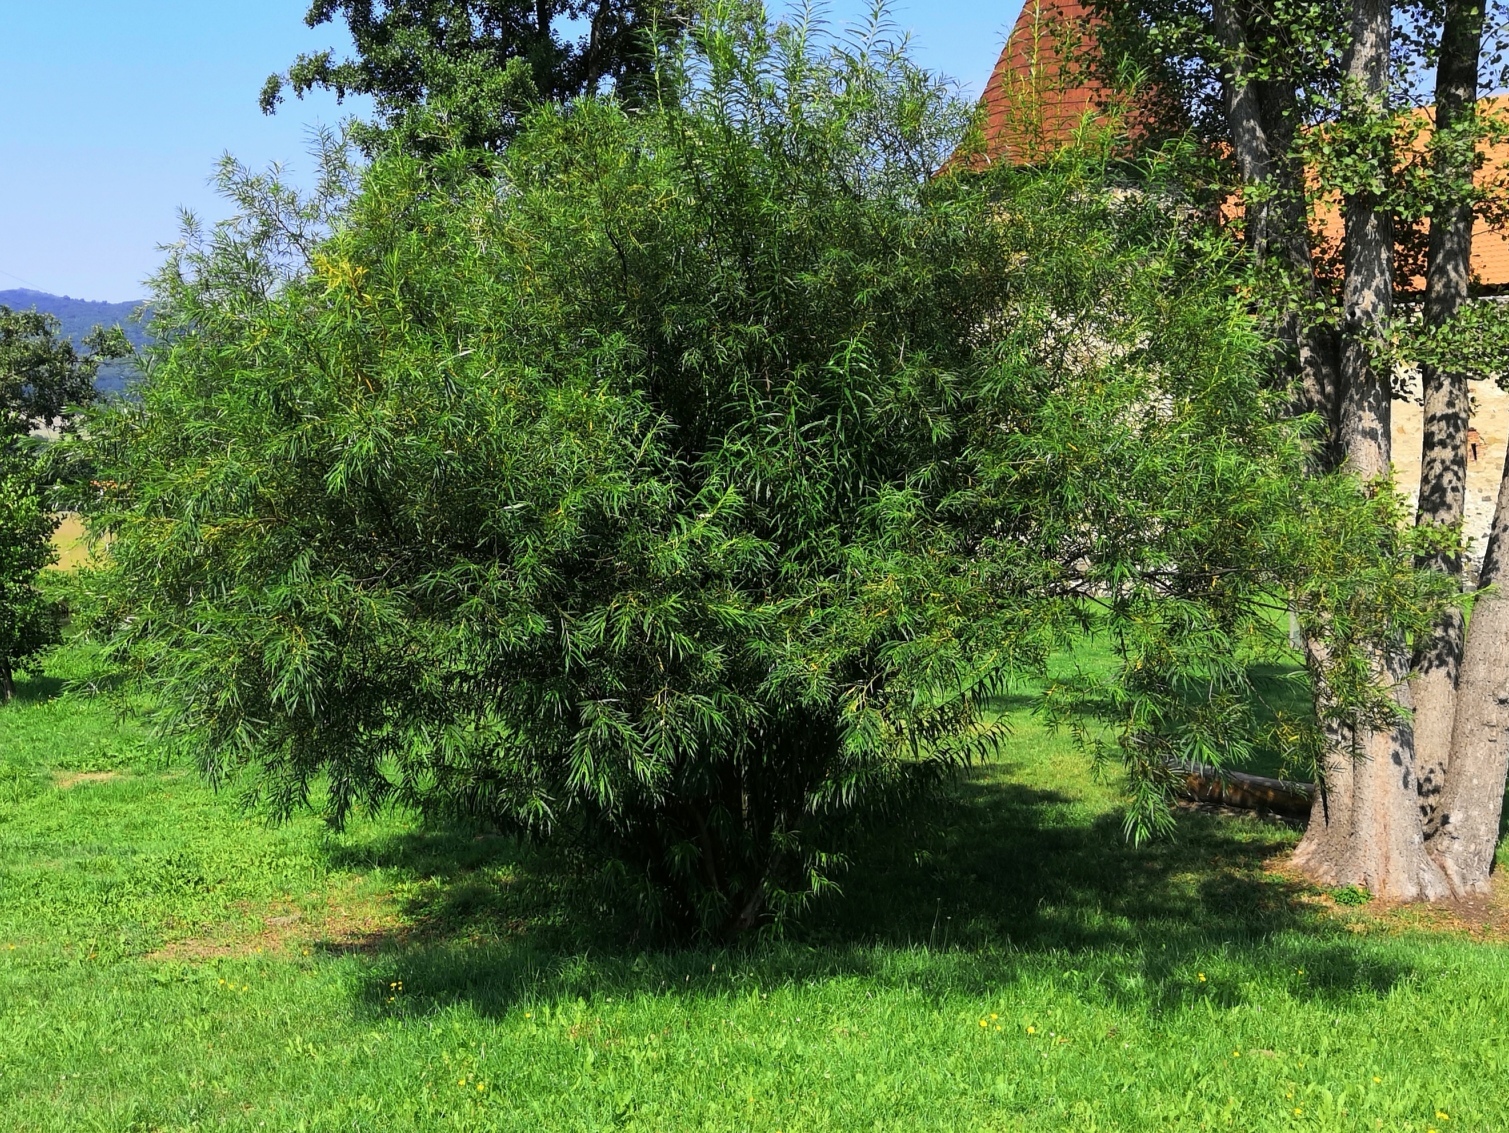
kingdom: Plantae
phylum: Tracheophyta
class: Magnoliopsida
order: Malpighiales
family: Salicaceae
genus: Salix
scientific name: Salix viminalis
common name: Osier
